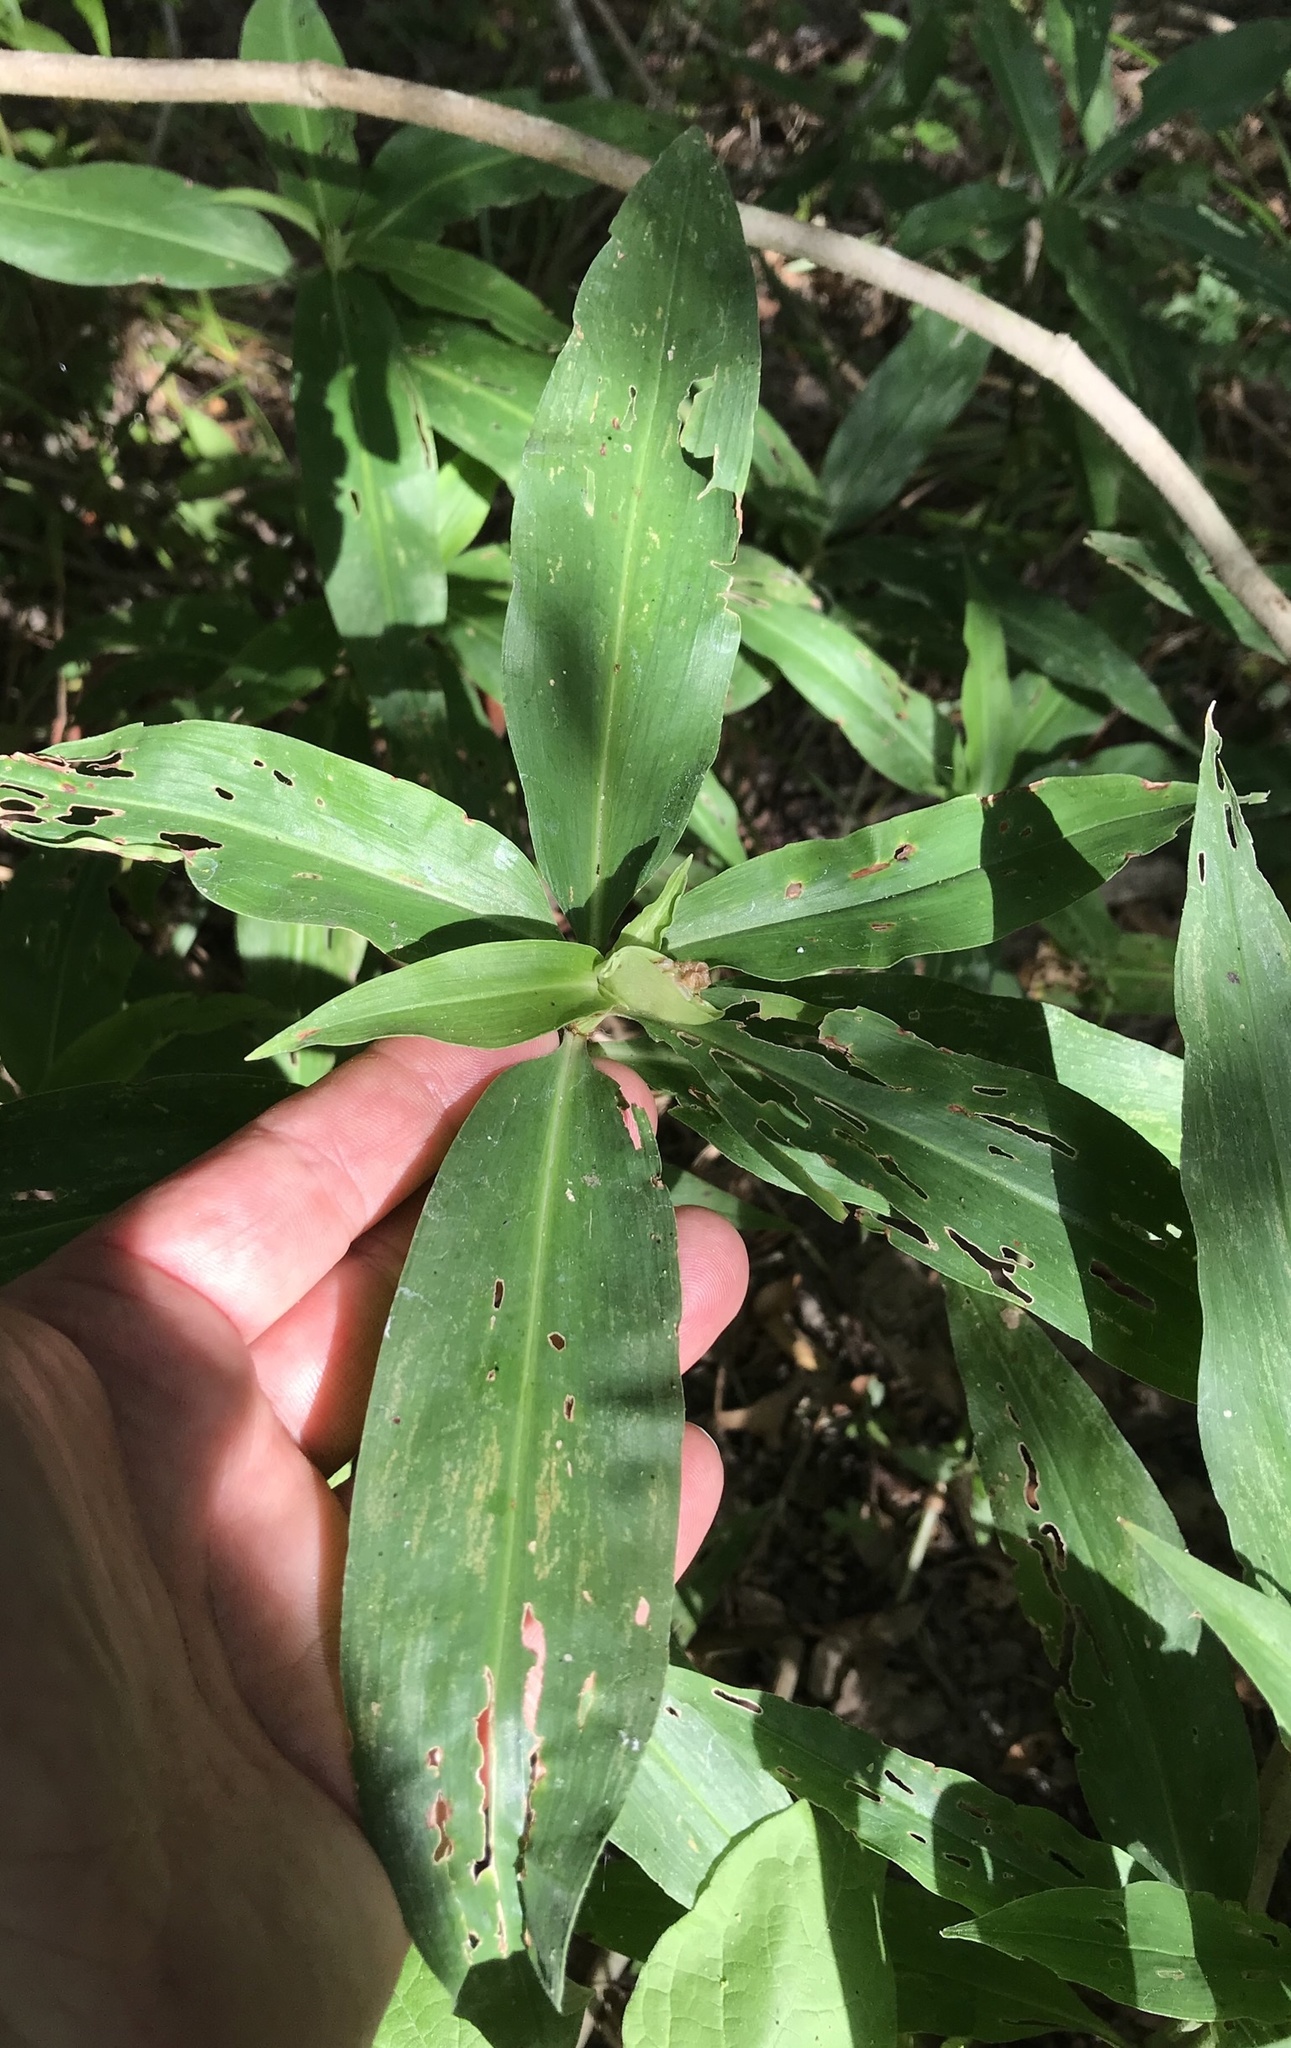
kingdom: Plantae
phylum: Tracheophyta
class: Liliopsida
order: Commelinales
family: Commelinaceae
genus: Commelina
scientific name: Commelina virginica
